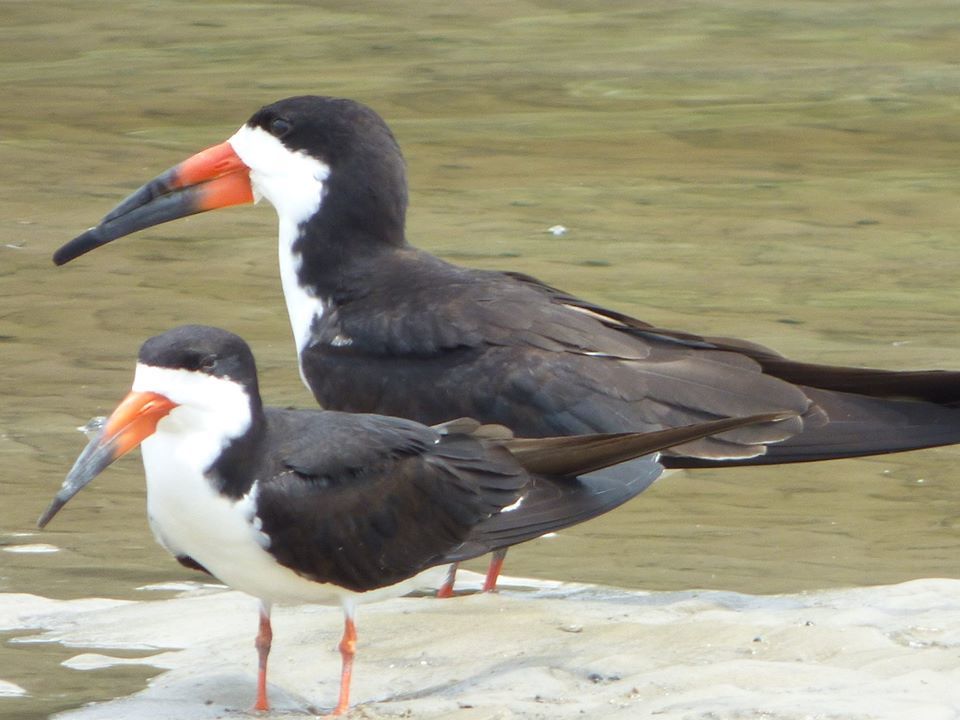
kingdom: Animalia
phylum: Chordata
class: Aves
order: Charadriiformes
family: Laridae
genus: Rynchops
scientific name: Rynchops niger
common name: Black skimmer
